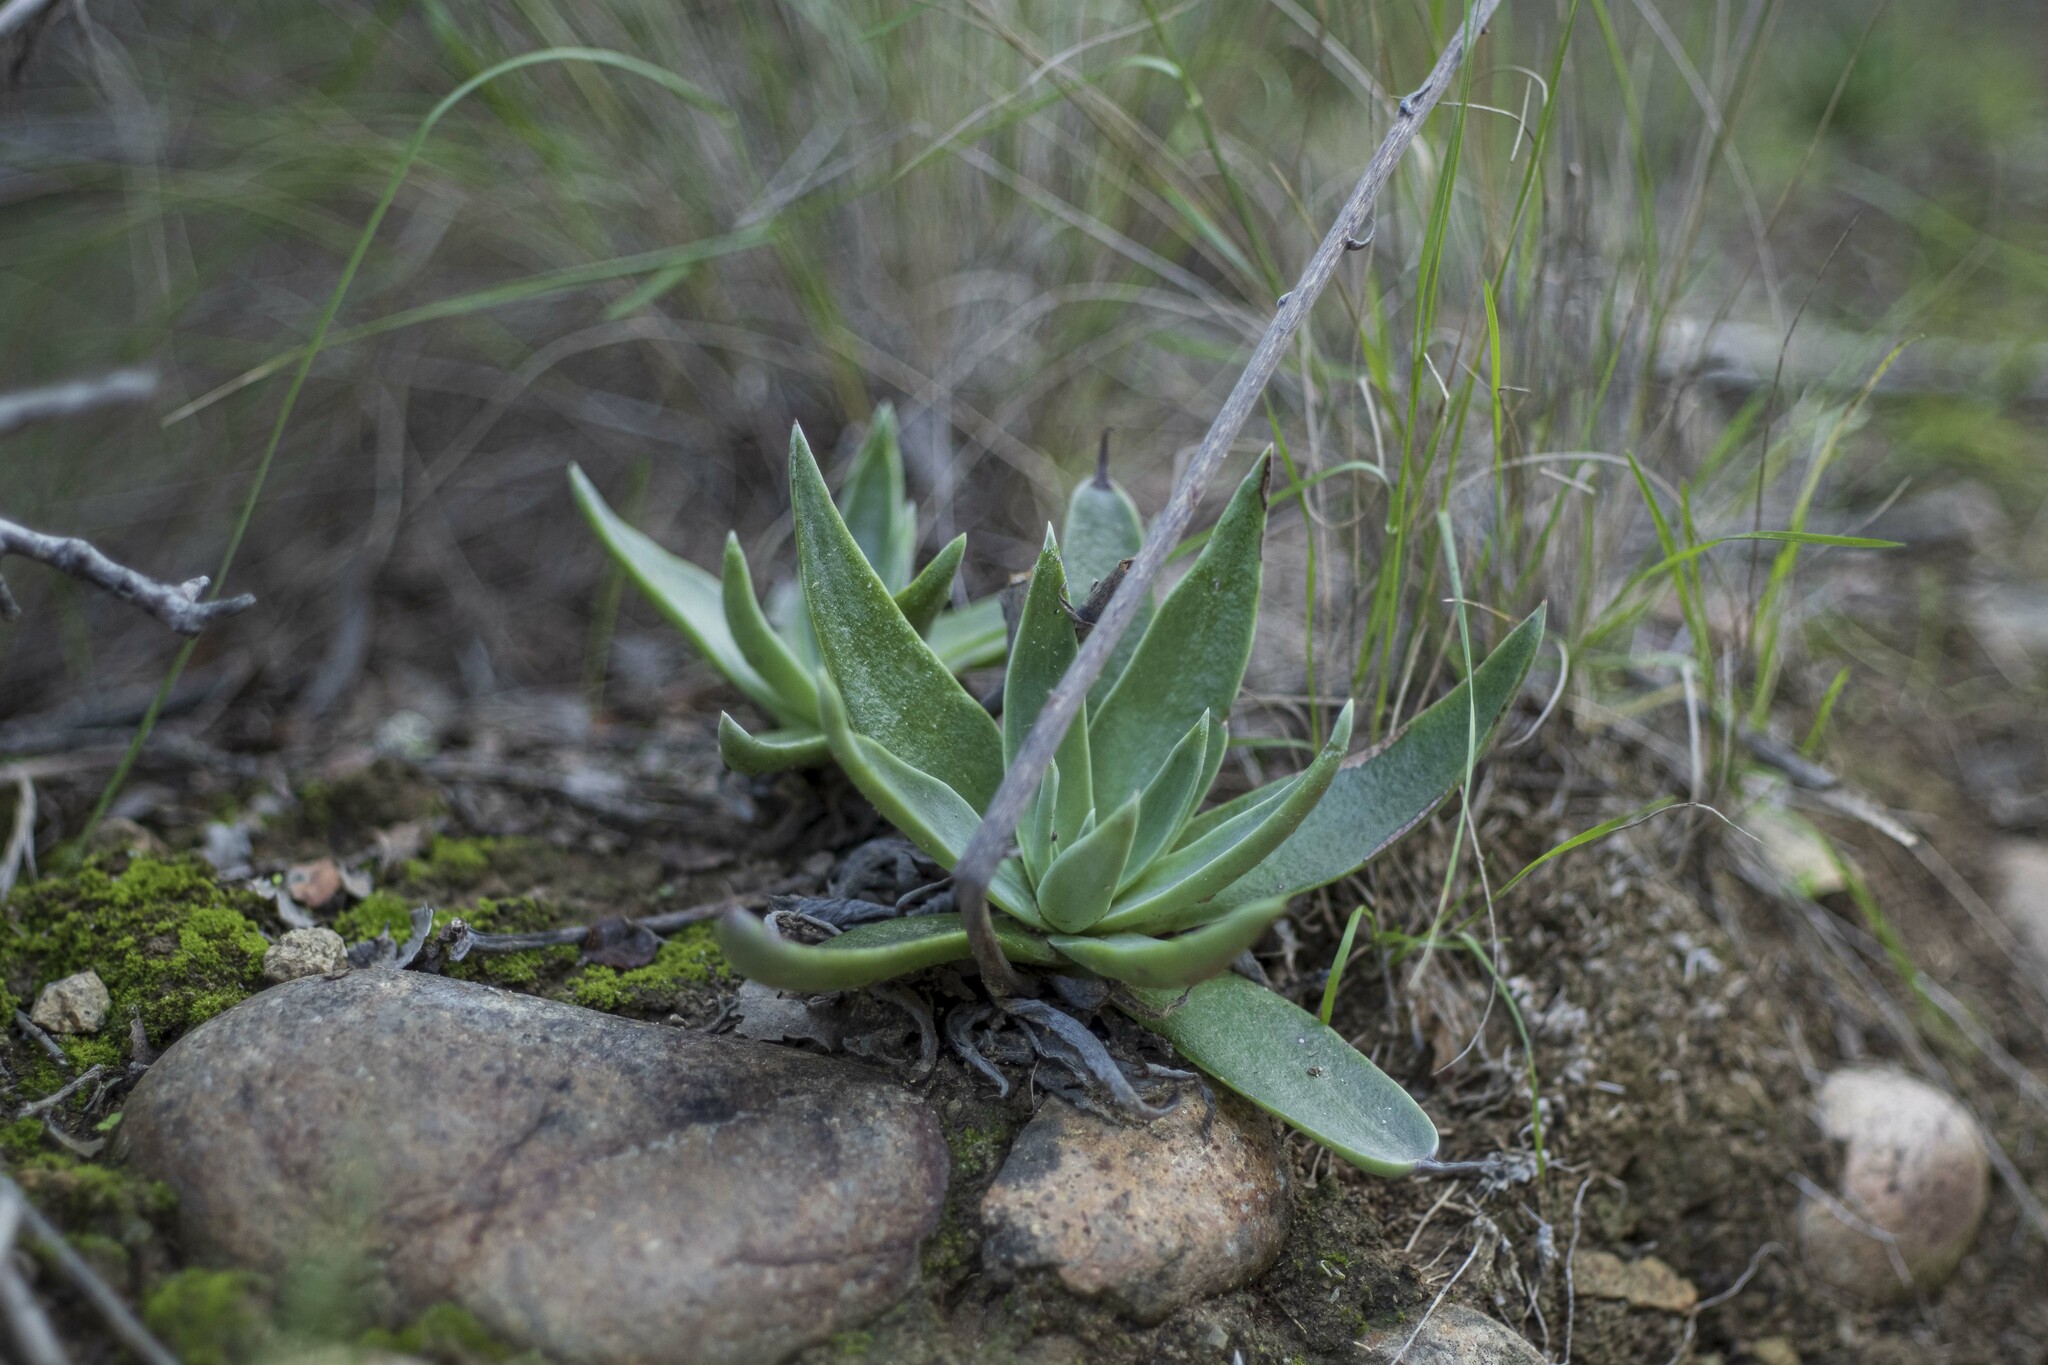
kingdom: Plantae
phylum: Tracheophyta
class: Magnoliopsida
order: Saxifragales
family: Crassulaceae
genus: Dudleya
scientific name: Dudleya lanceolata
